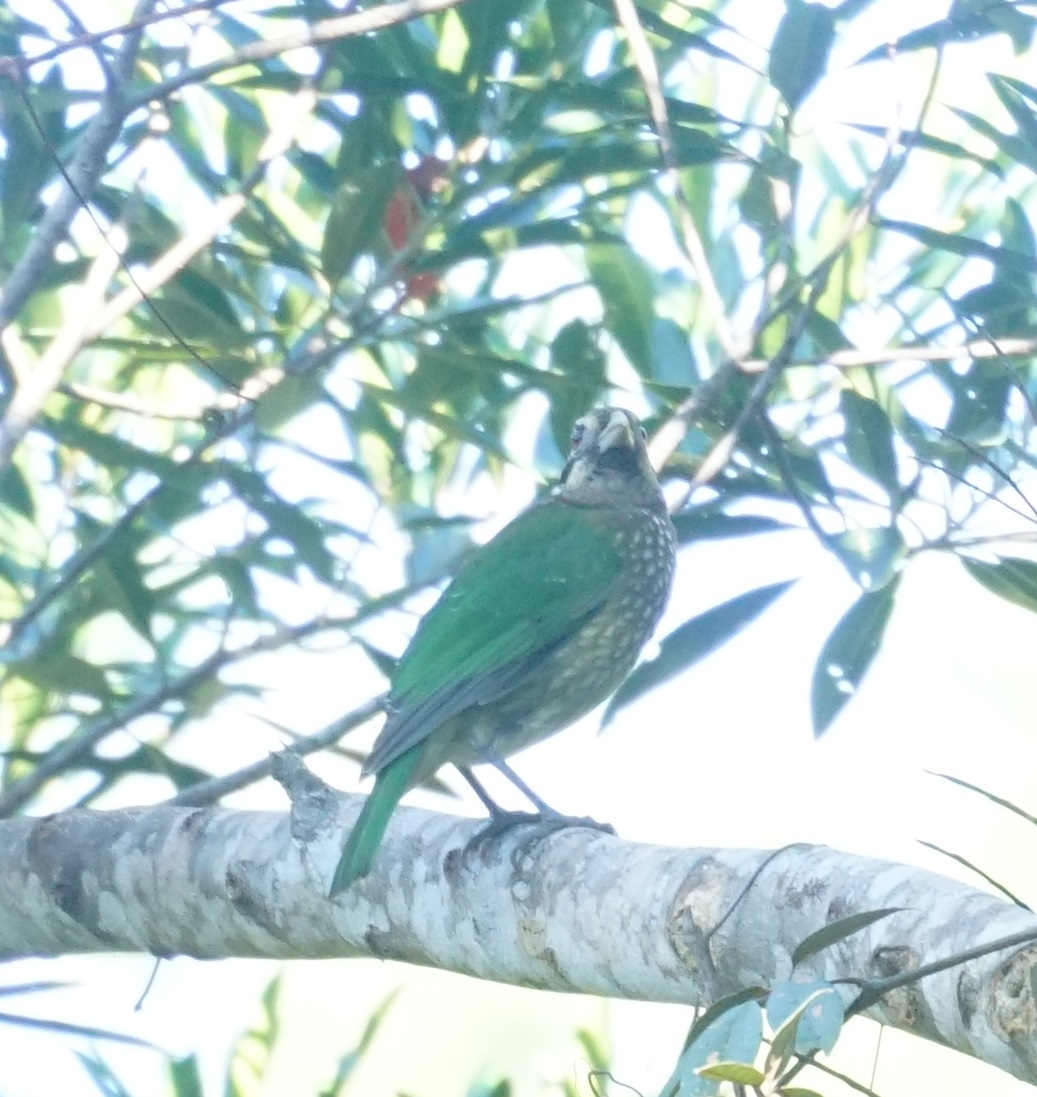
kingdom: Animalia
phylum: Chordata
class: Aves
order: Passeriformes
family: Ptilonorhynchidae
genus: Ailuroedus
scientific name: Ailuroedus maculosus
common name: Spotted catbird
